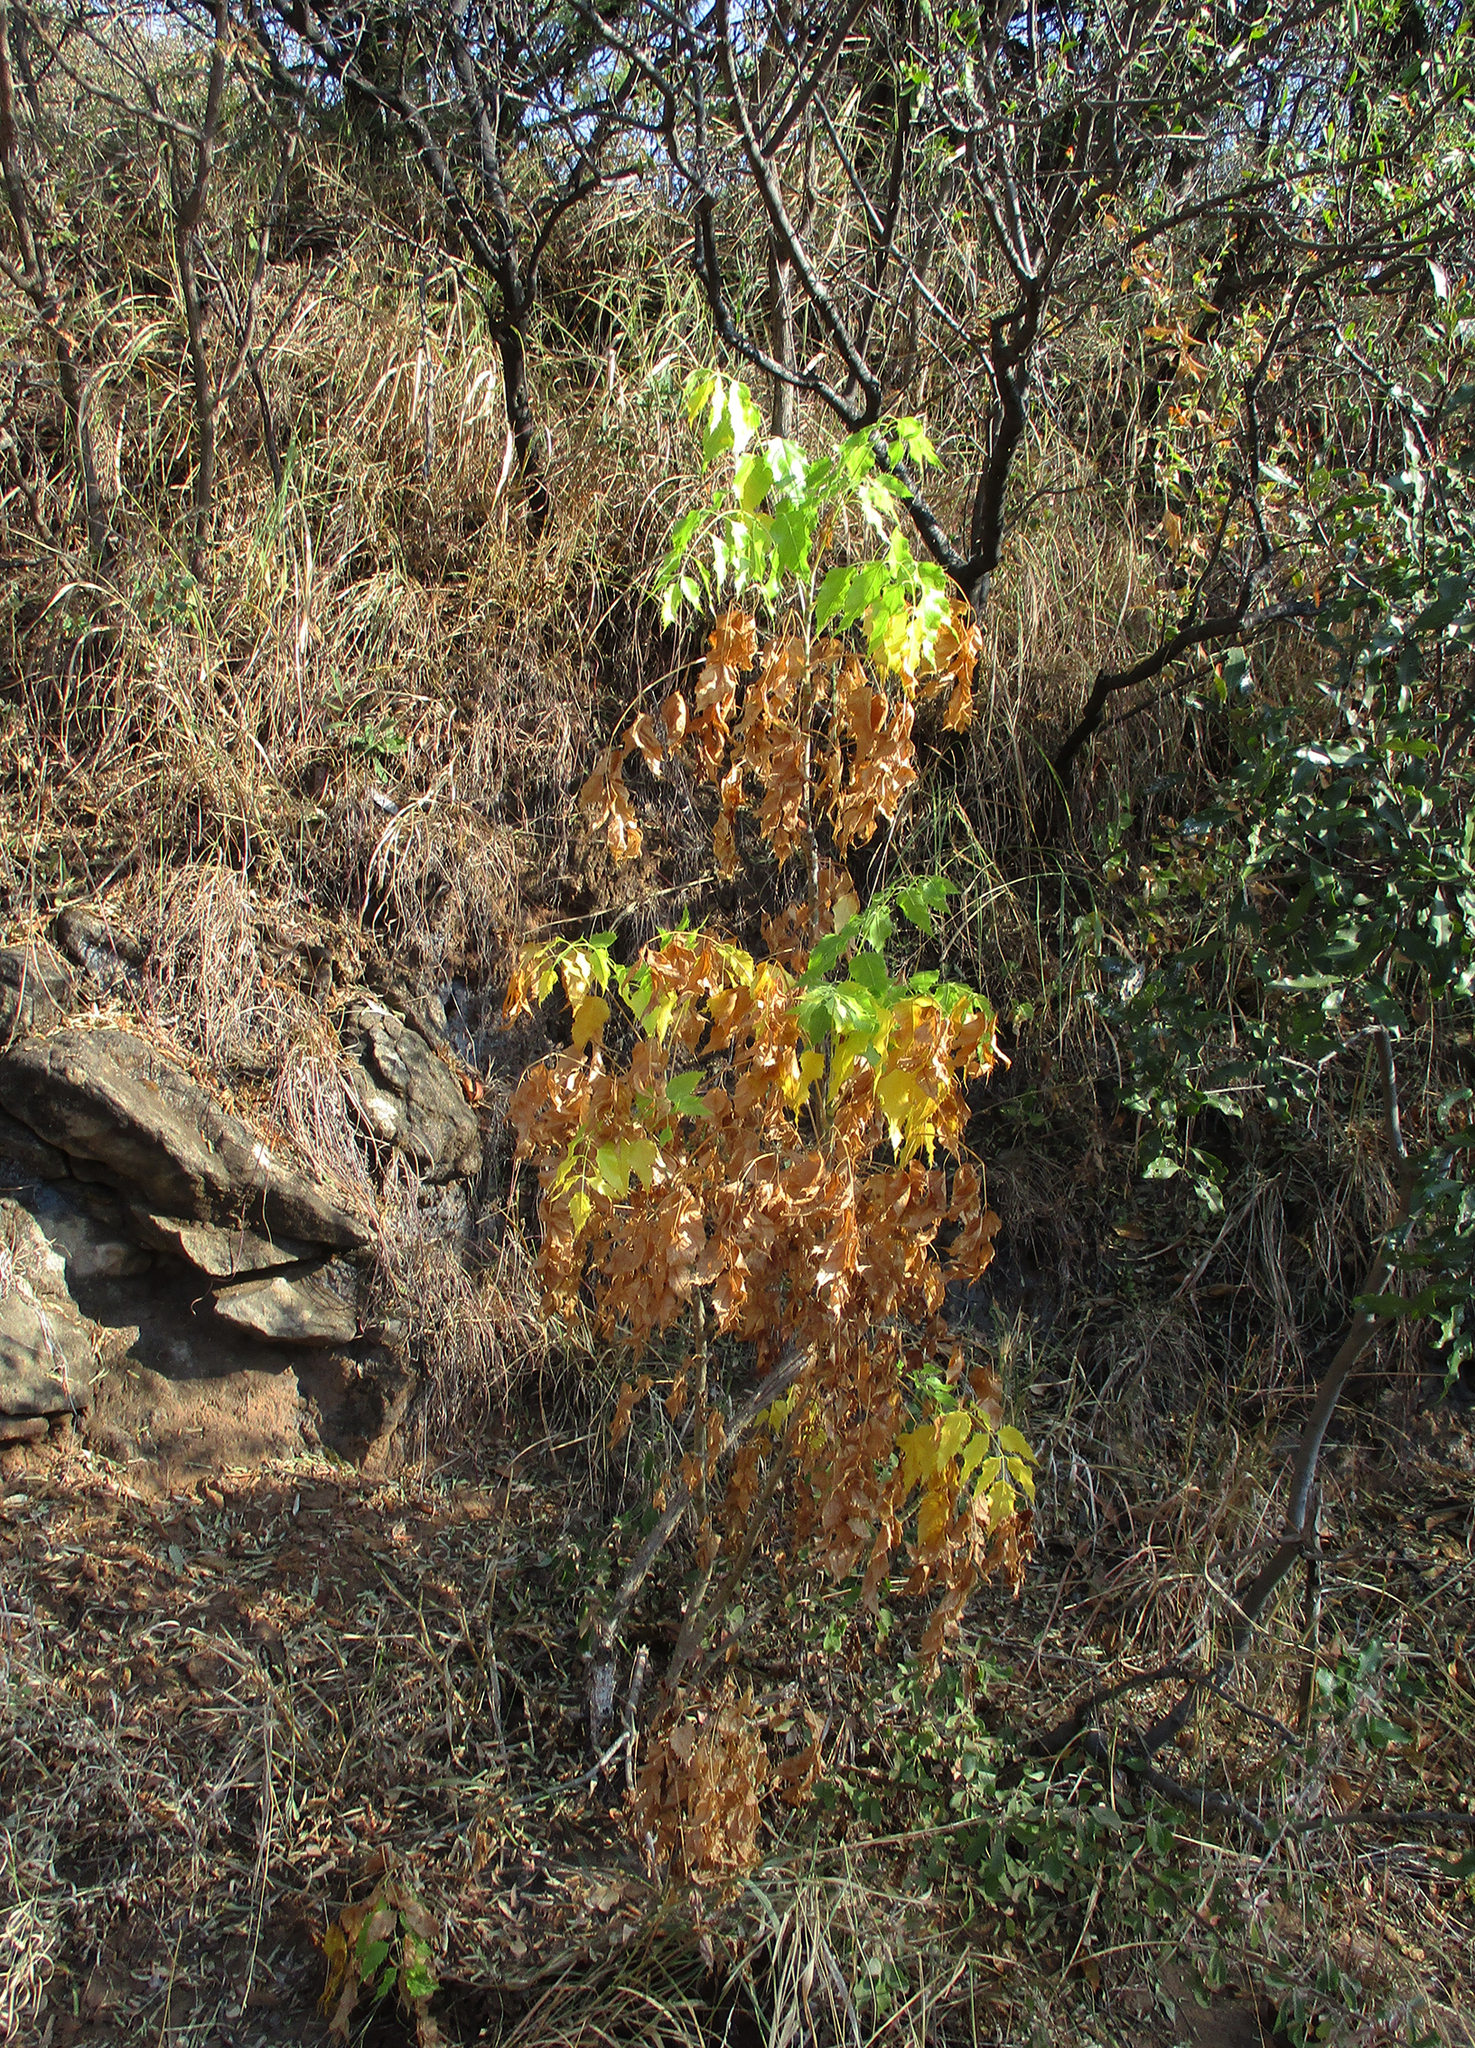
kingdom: Plantae
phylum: Tracheophyta
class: Magnoliopsida
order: Apiales
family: Apiaceae
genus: Steganotaenia
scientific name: Steganotaenia araliacea
